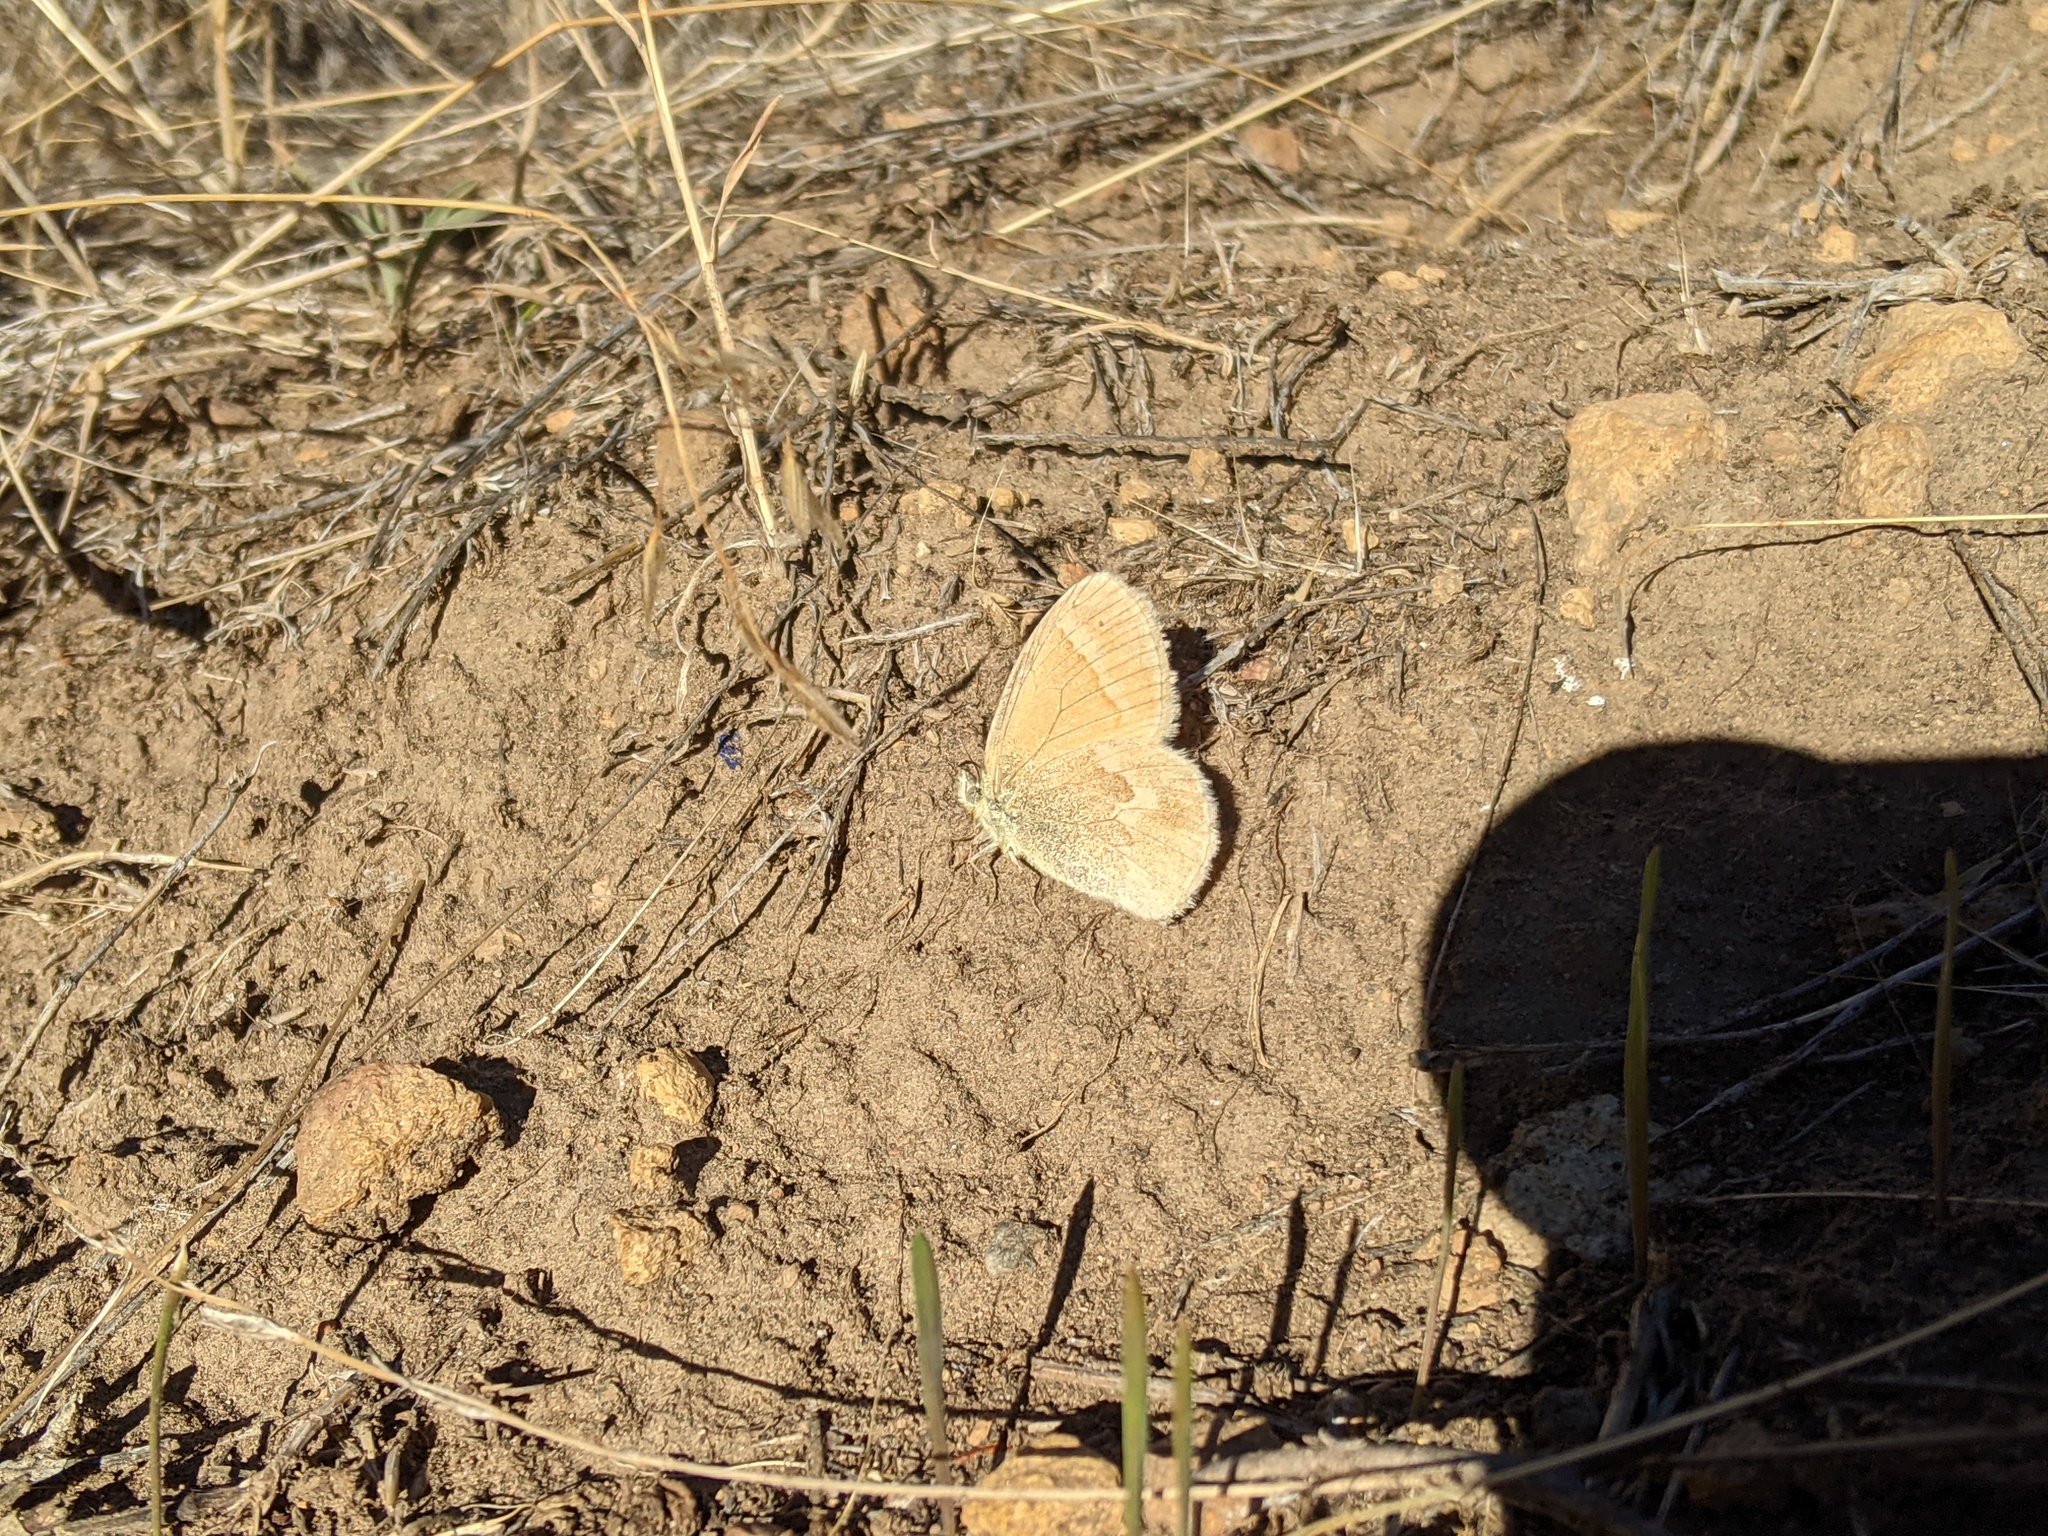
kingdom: Animalia
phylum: Arthropoda
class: Insecta
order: Lepidoptera
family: Nymphalidae
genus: Coenonympha
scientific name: Coenonympha california
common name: Common ringlet
